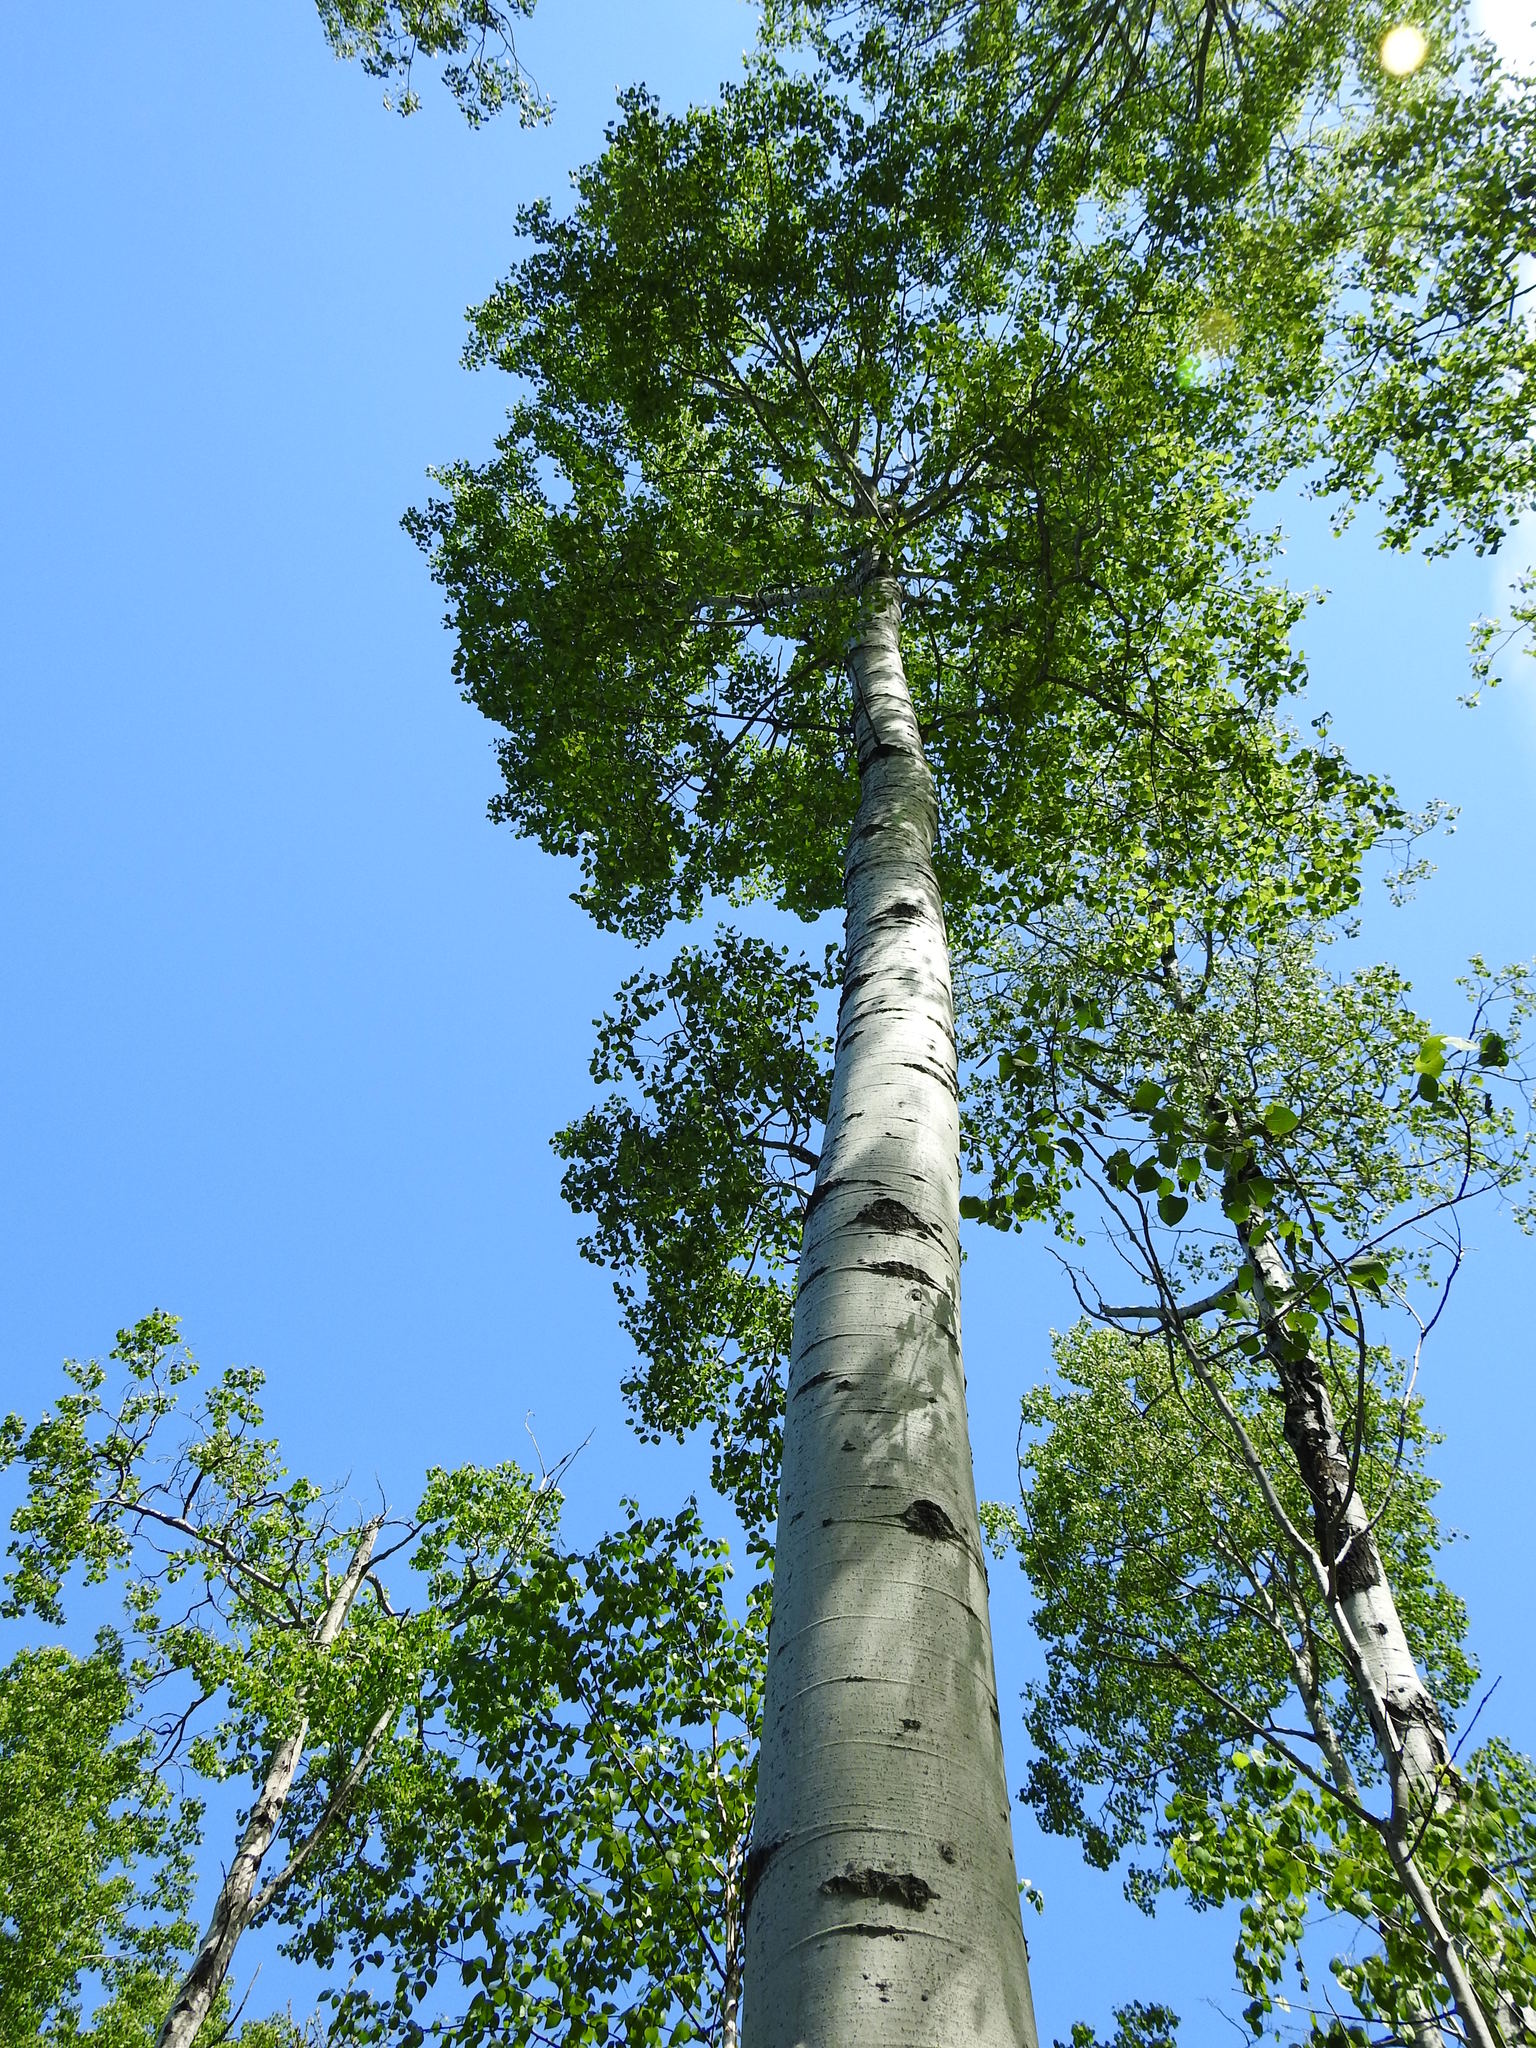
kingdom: Plantae
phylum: Tracheophyta
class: Magnoliopsida
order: Malpighiales
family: Salicaceae
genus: Populus
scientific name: Populus tremuloides
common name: Quaking aspen
